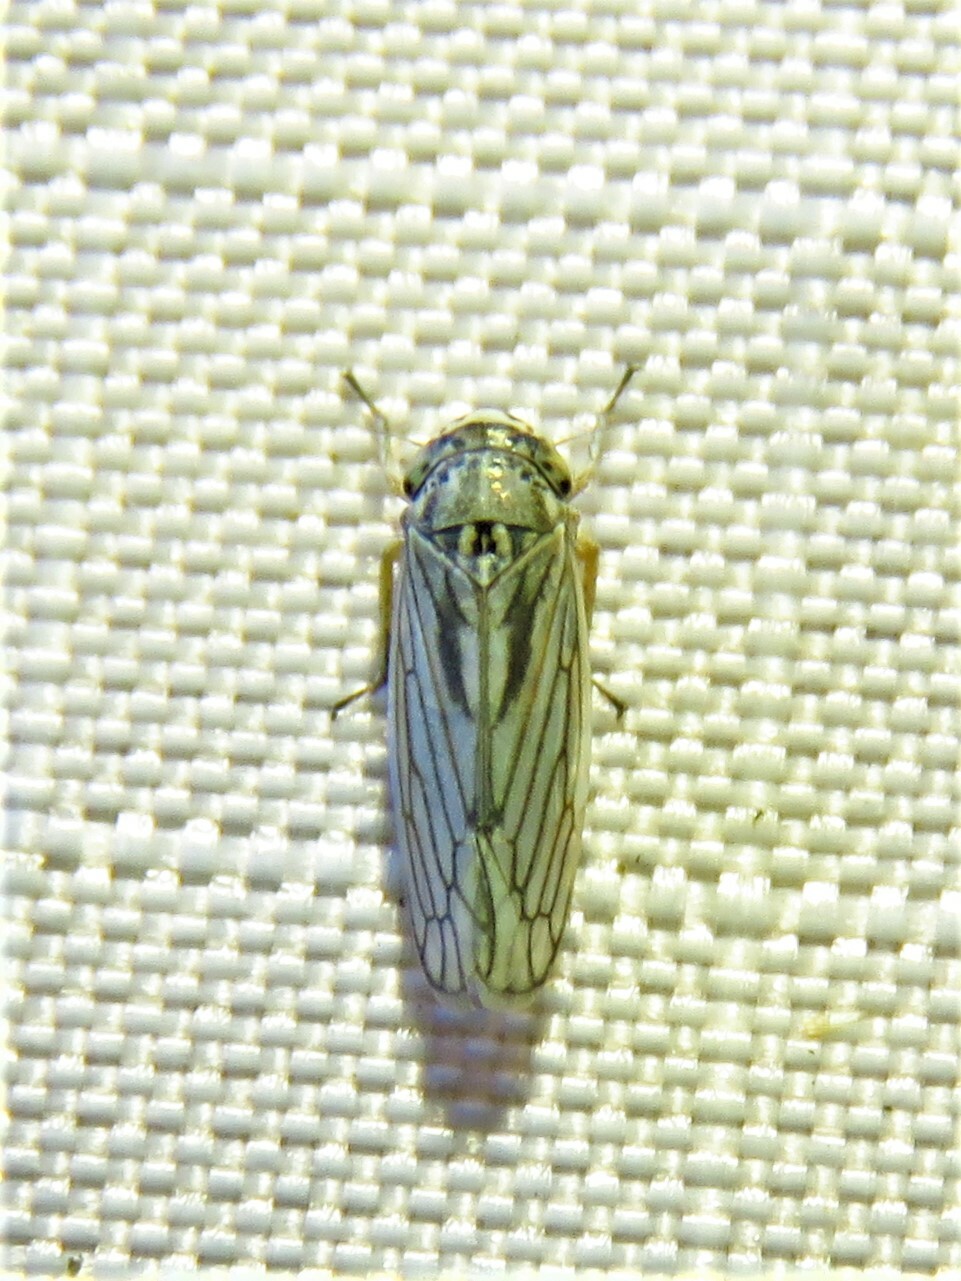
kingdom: Animalia
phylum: Arthropoda
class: Insecta
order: Hemiptera
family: Cicadellidae
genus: Exitianus
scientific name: Exitianus exitiosus
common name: Gray lawn leafhopper
